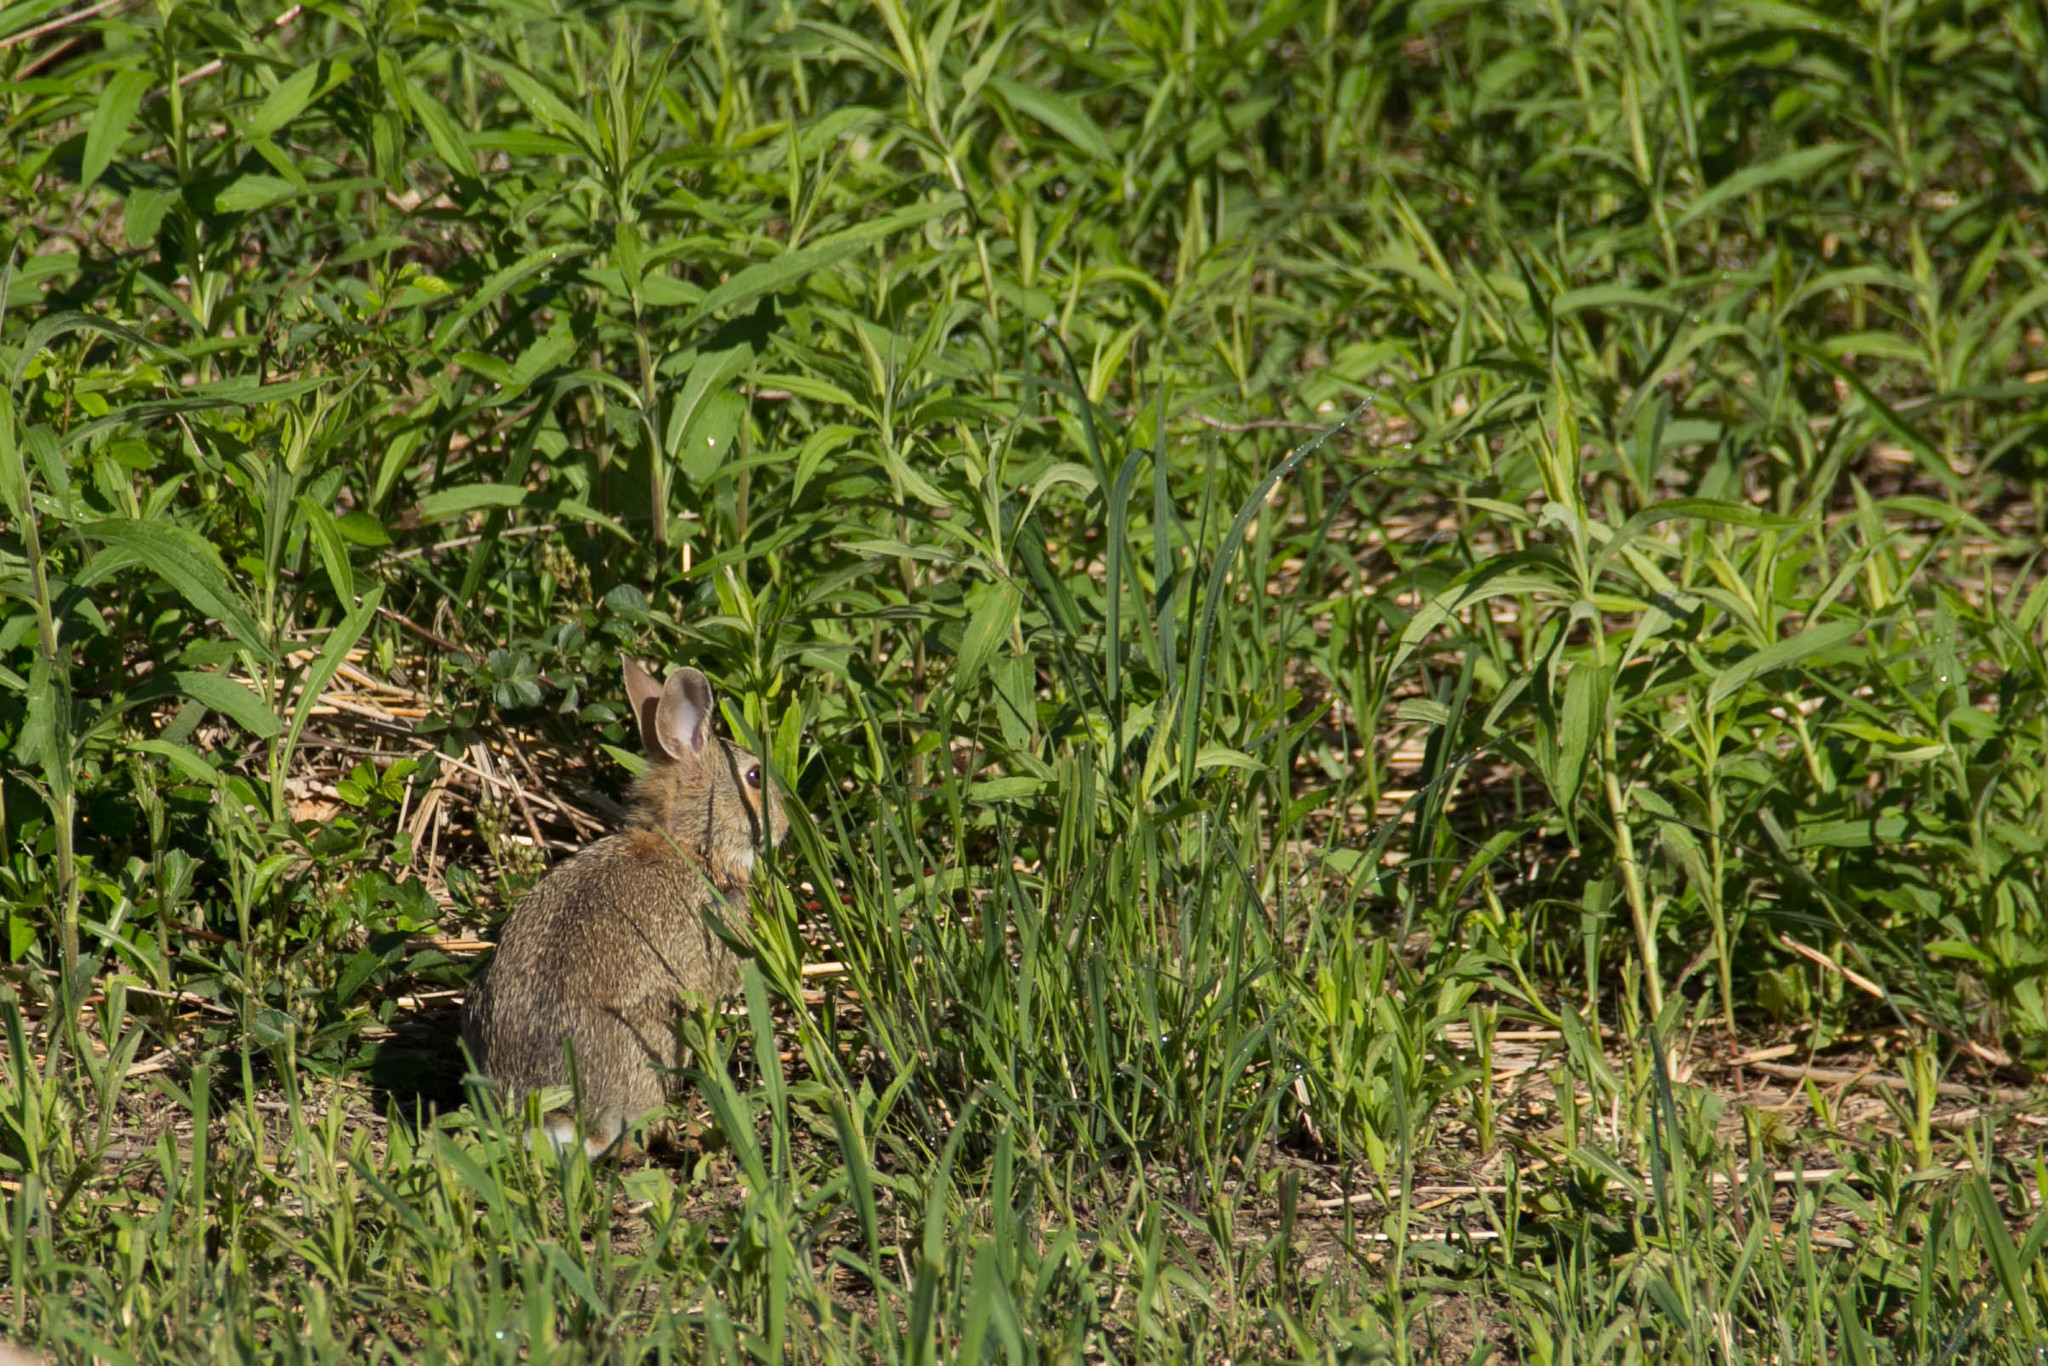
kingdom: Animalia
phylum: Chordata
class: Mammalia
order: Lagomorpha
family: Leporidae
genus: Sylvilagus
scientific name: Sylvilagus floridanus
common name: Eastern cottontail
